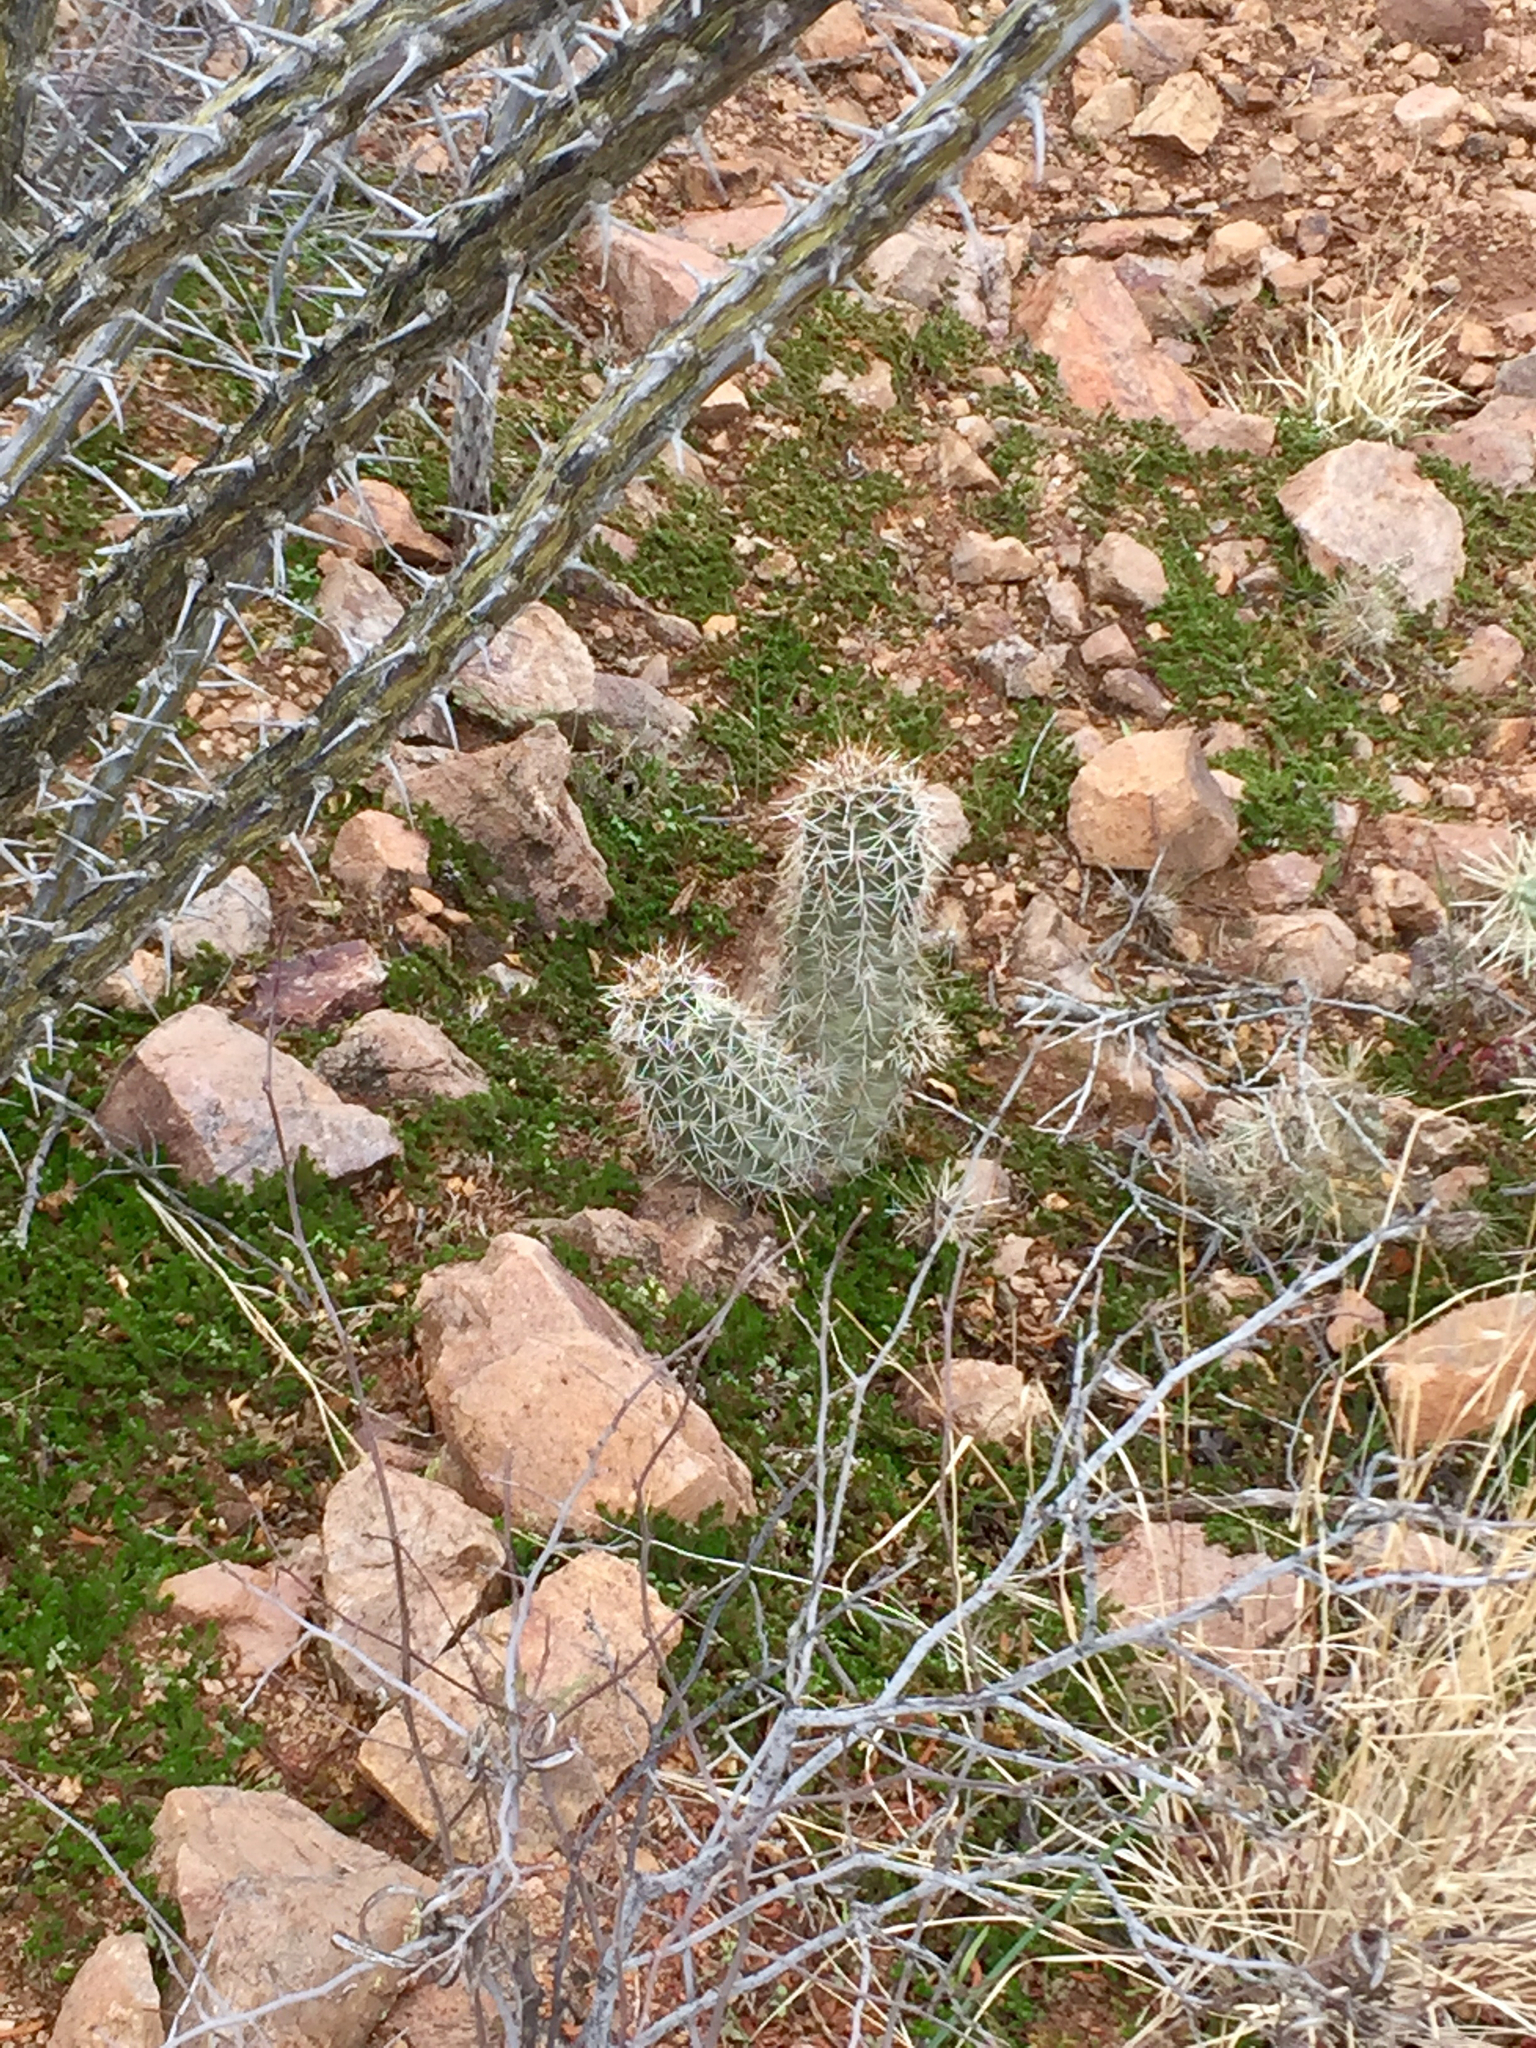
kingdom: Plantae
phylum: Tracheophyta
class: Magnoliopsida
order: Caryophyllales
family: Cactaceae
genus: Echinocereus
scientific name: Echinocereus fasciculatus
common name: Bundle hedgehog
